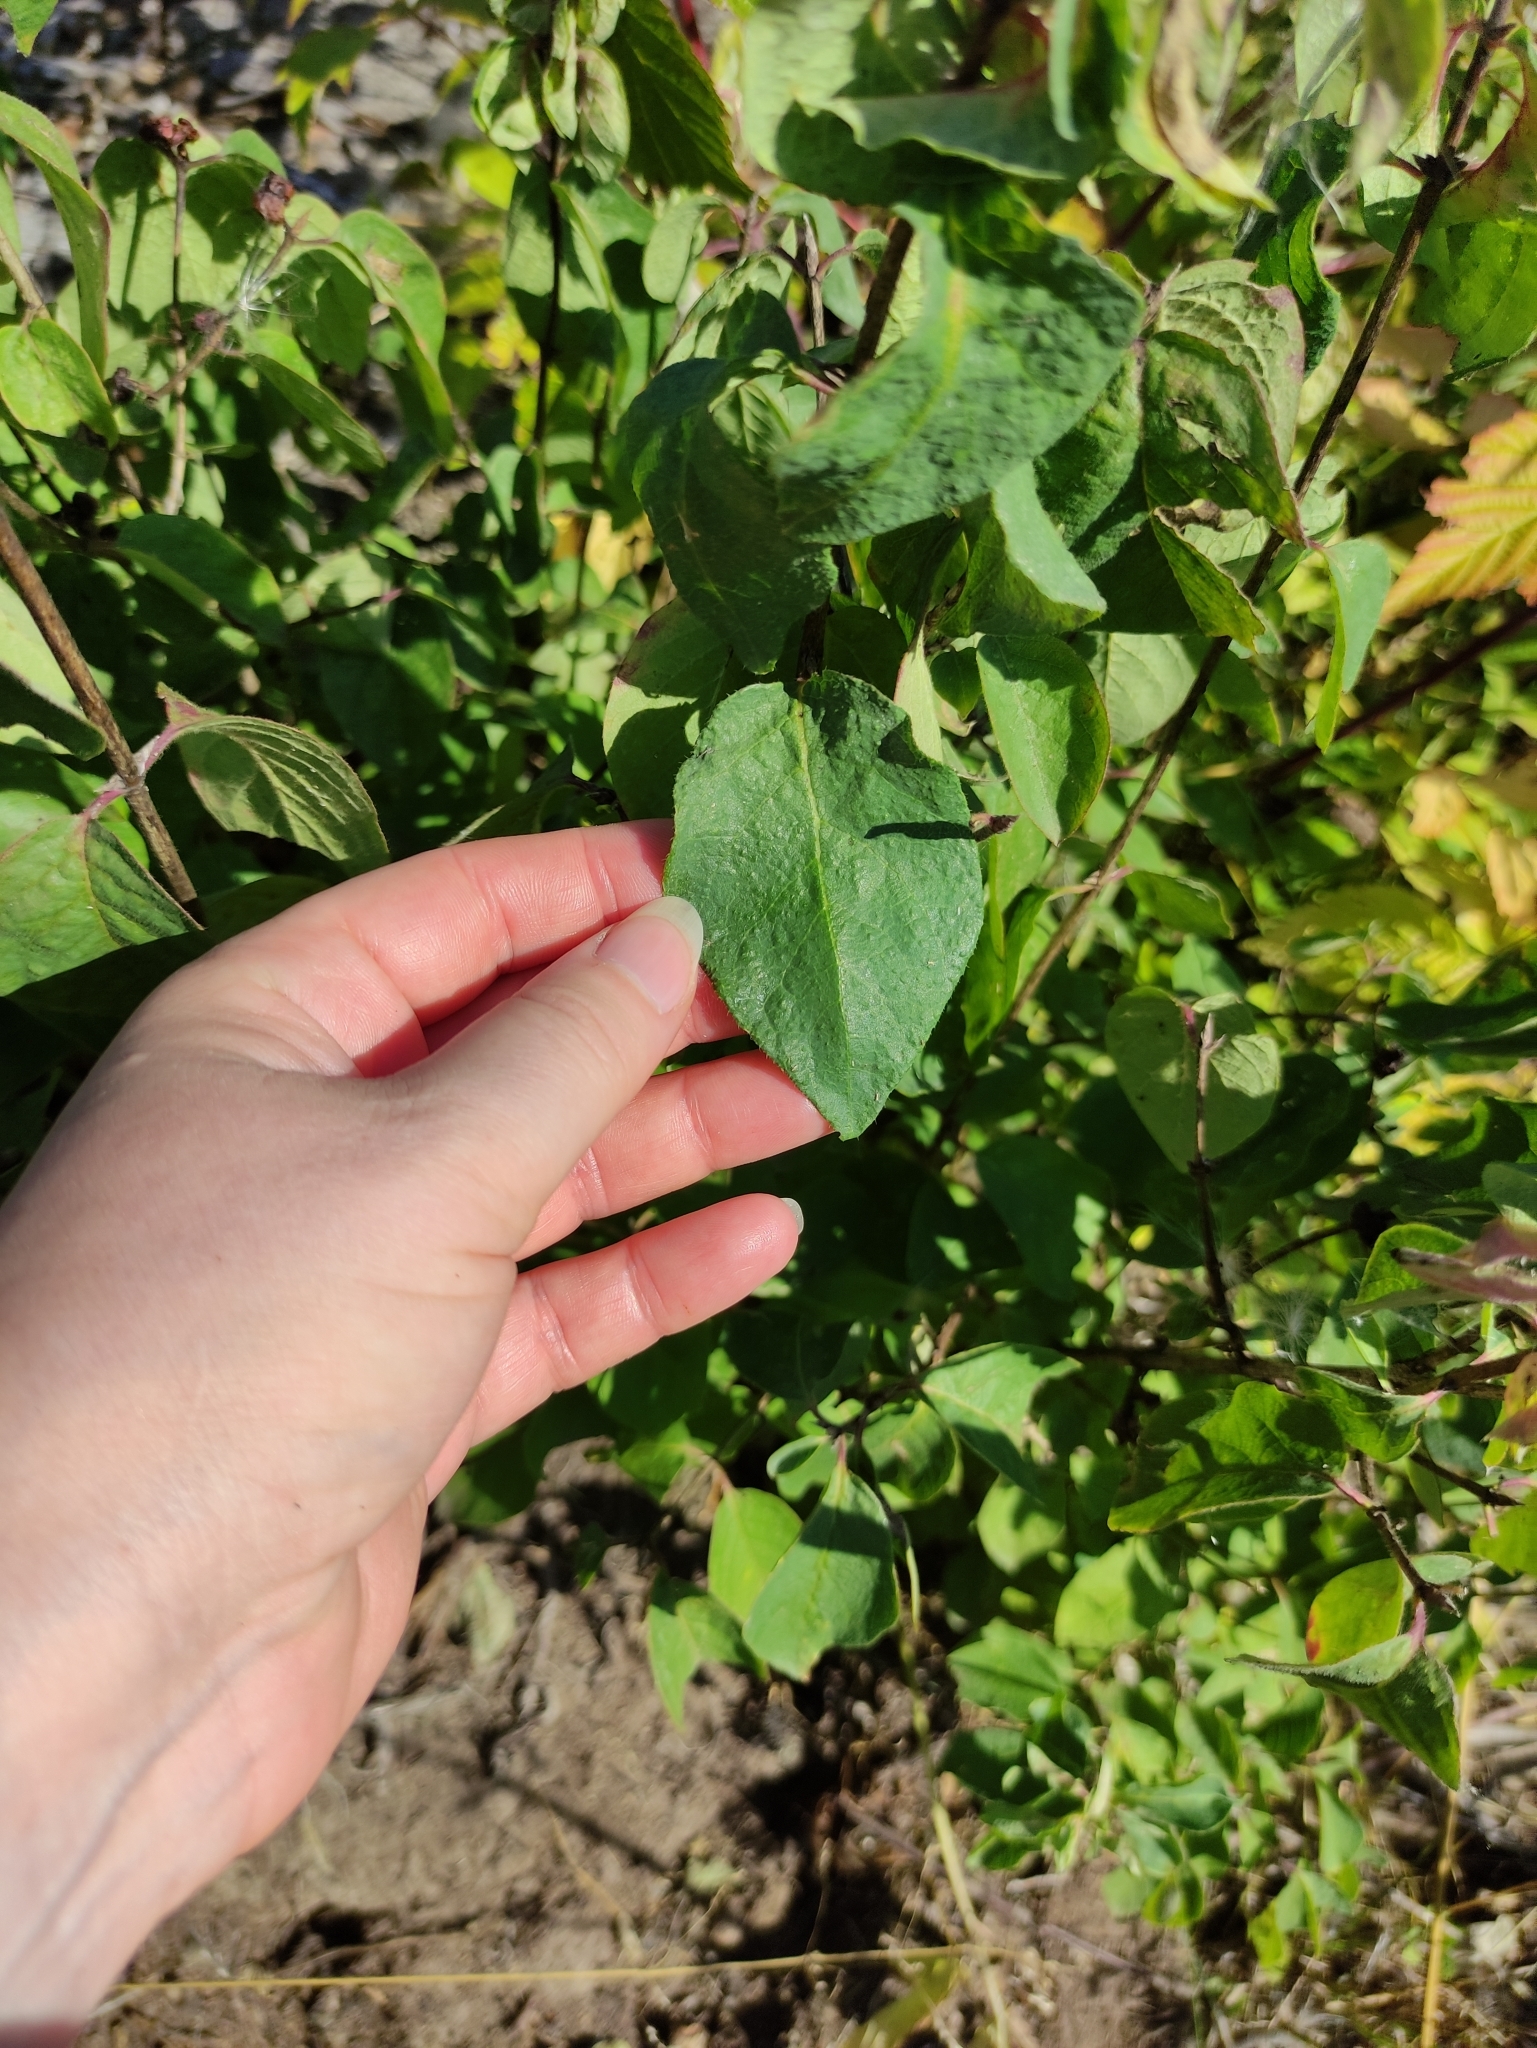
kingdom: Plantae
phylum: Tracheophyta
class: Magnoliopsida
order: Dipsacales
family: Caprifoliaceae
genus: Lonicera
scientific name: Lonicera xylosteum
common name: Fly honeysuckle
